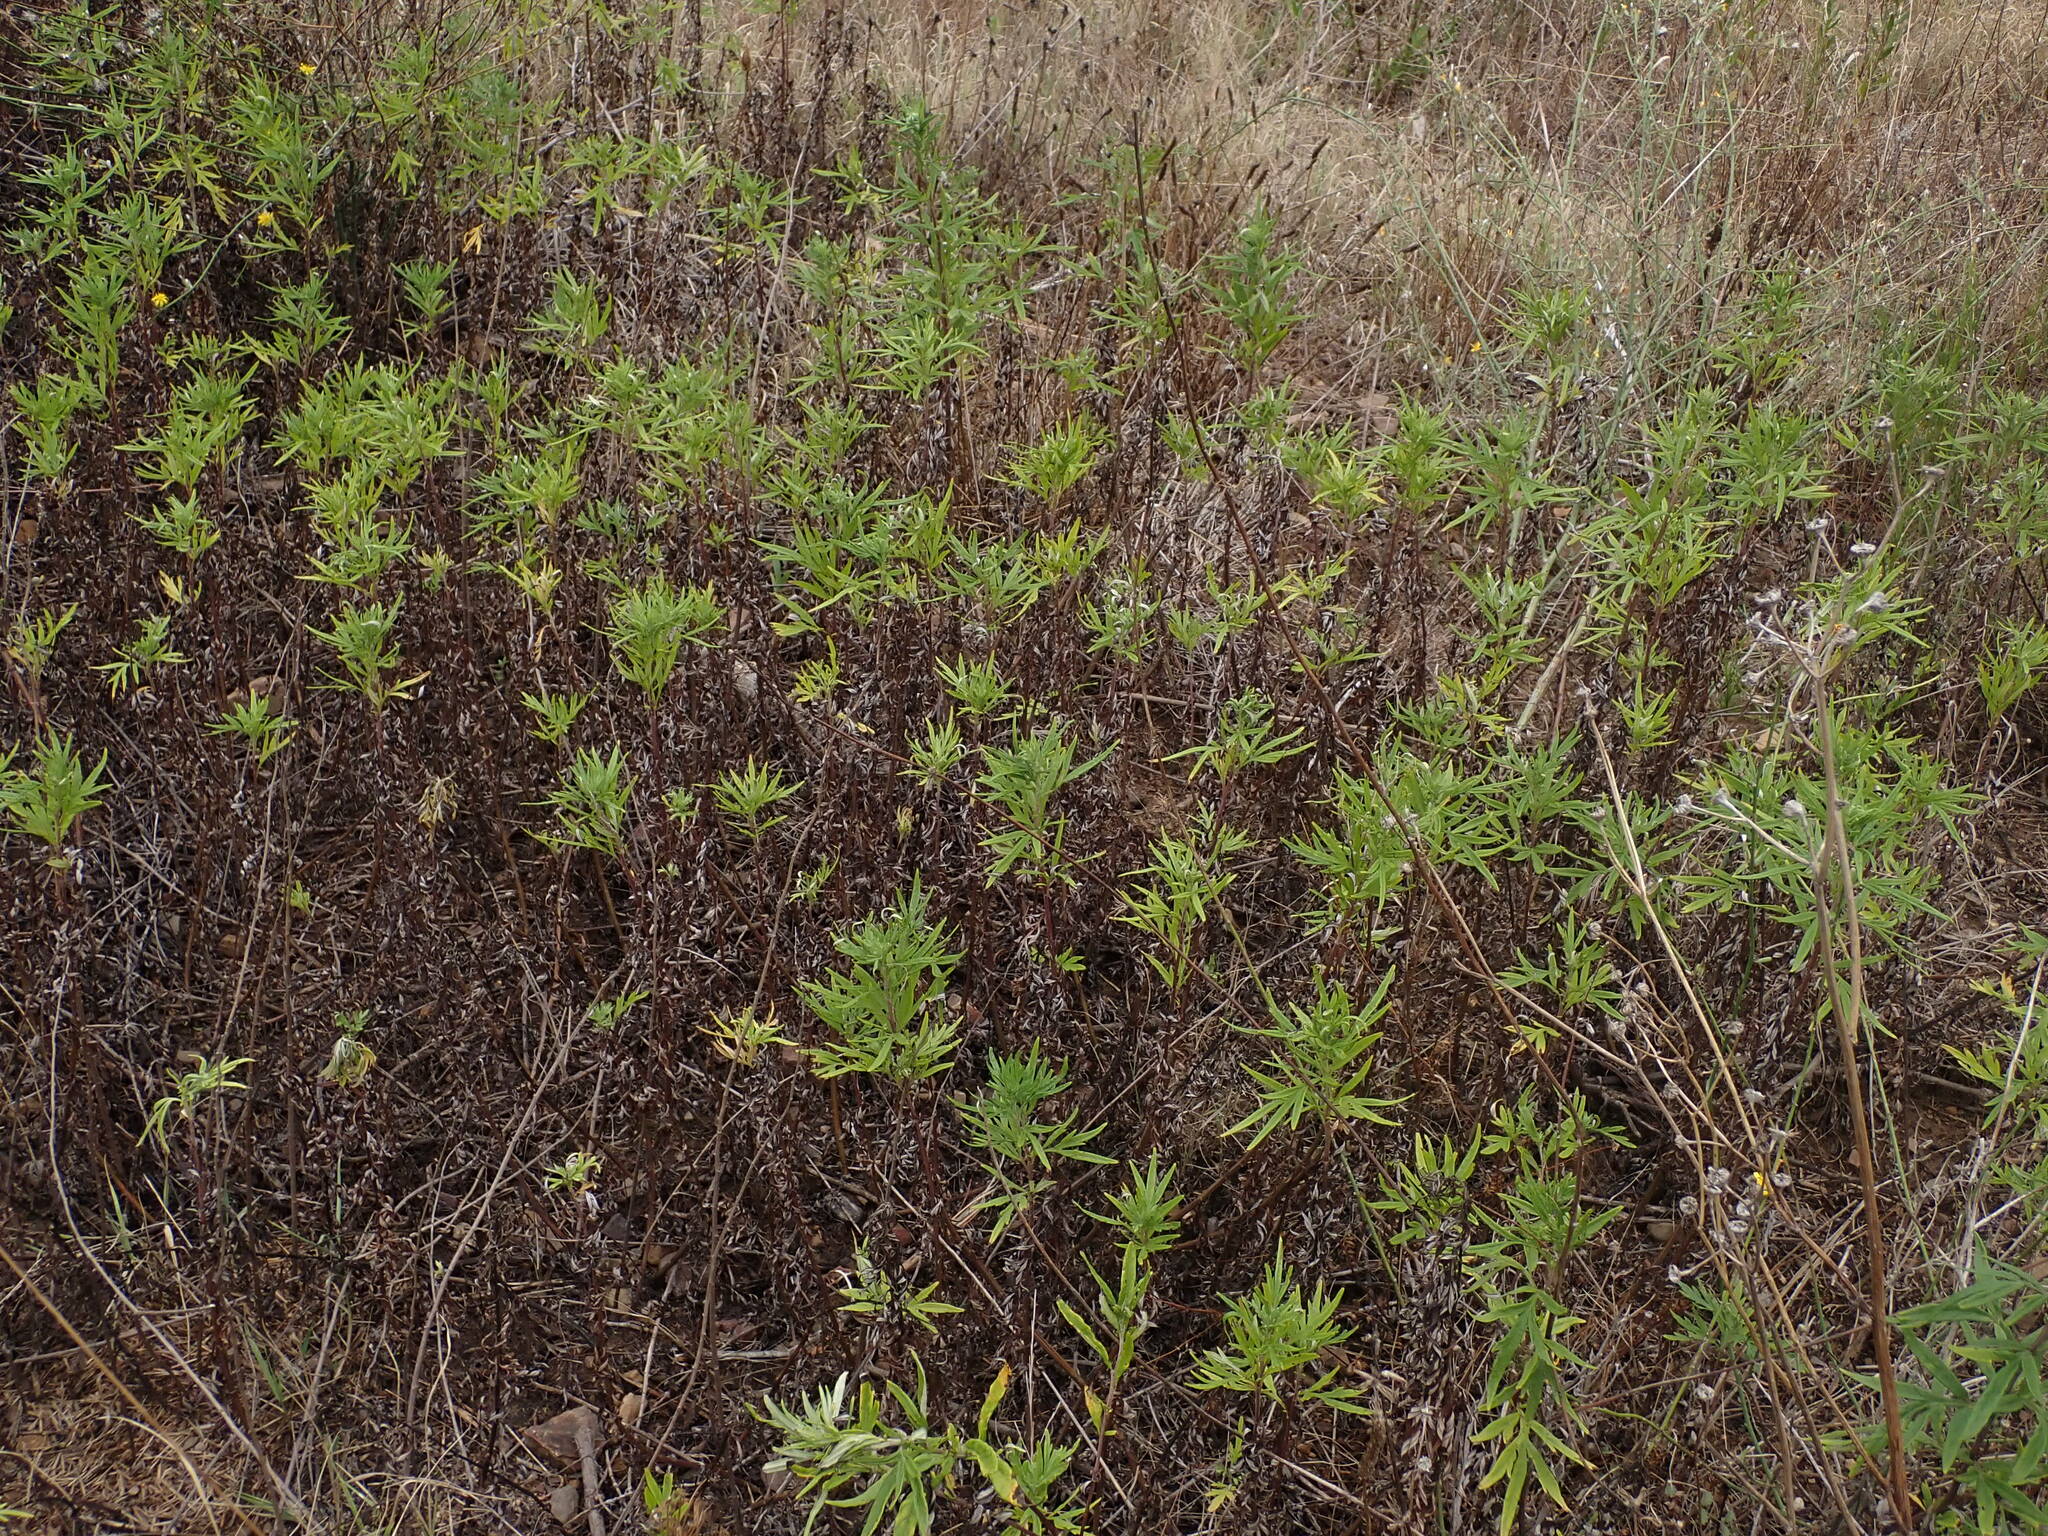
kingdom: Plantae
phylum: Tracheophyta
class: Magnoliopsida
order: Asterales
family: Asteraceae
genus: Senecio
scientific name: Senecio inaequidens
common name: Narrow-leaved ragwort
